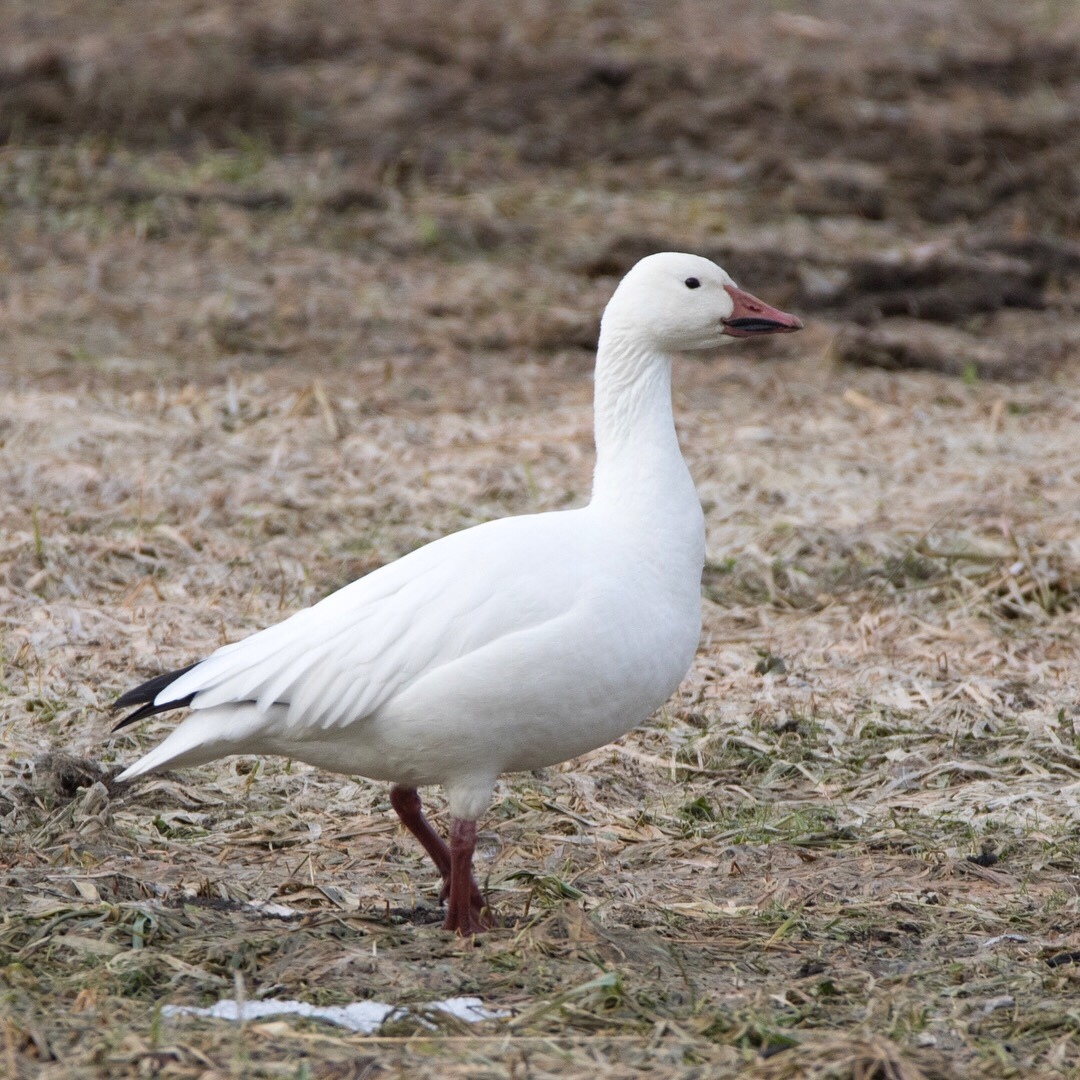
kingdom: Animalia
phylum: Chordata
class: Aves
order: Anseriformes
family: Anatidae
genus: Anser
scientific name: Anser caerulescens
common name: Snow goose
